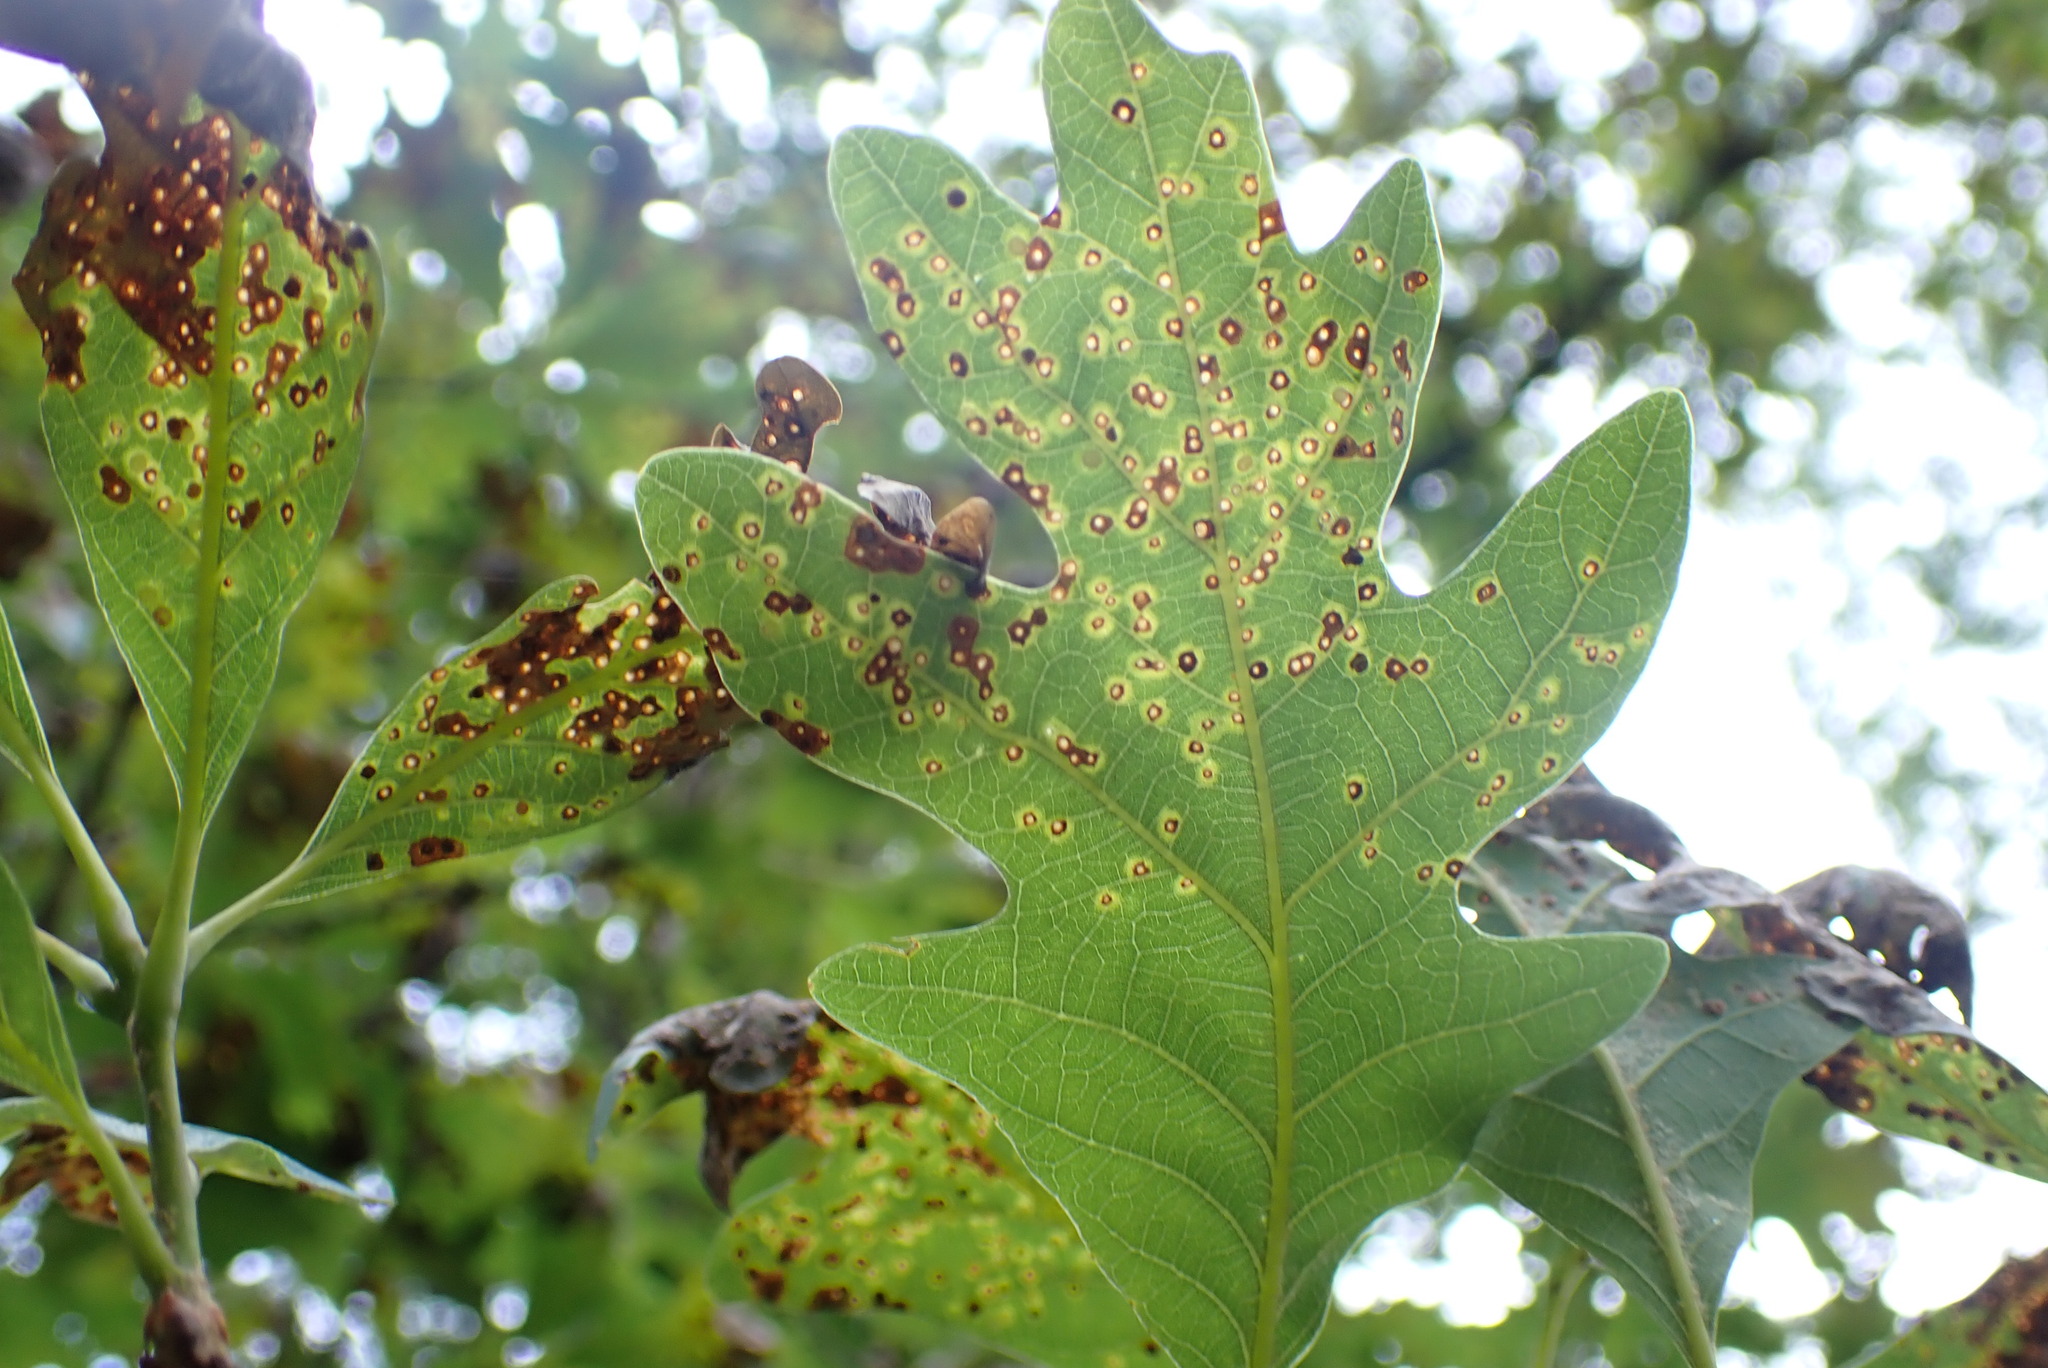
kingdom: Animalia
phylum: Arthropoda
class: Insecta
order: Hymenoptera
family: Cynipidae
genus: Neuroterus
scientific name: Neuroterus
